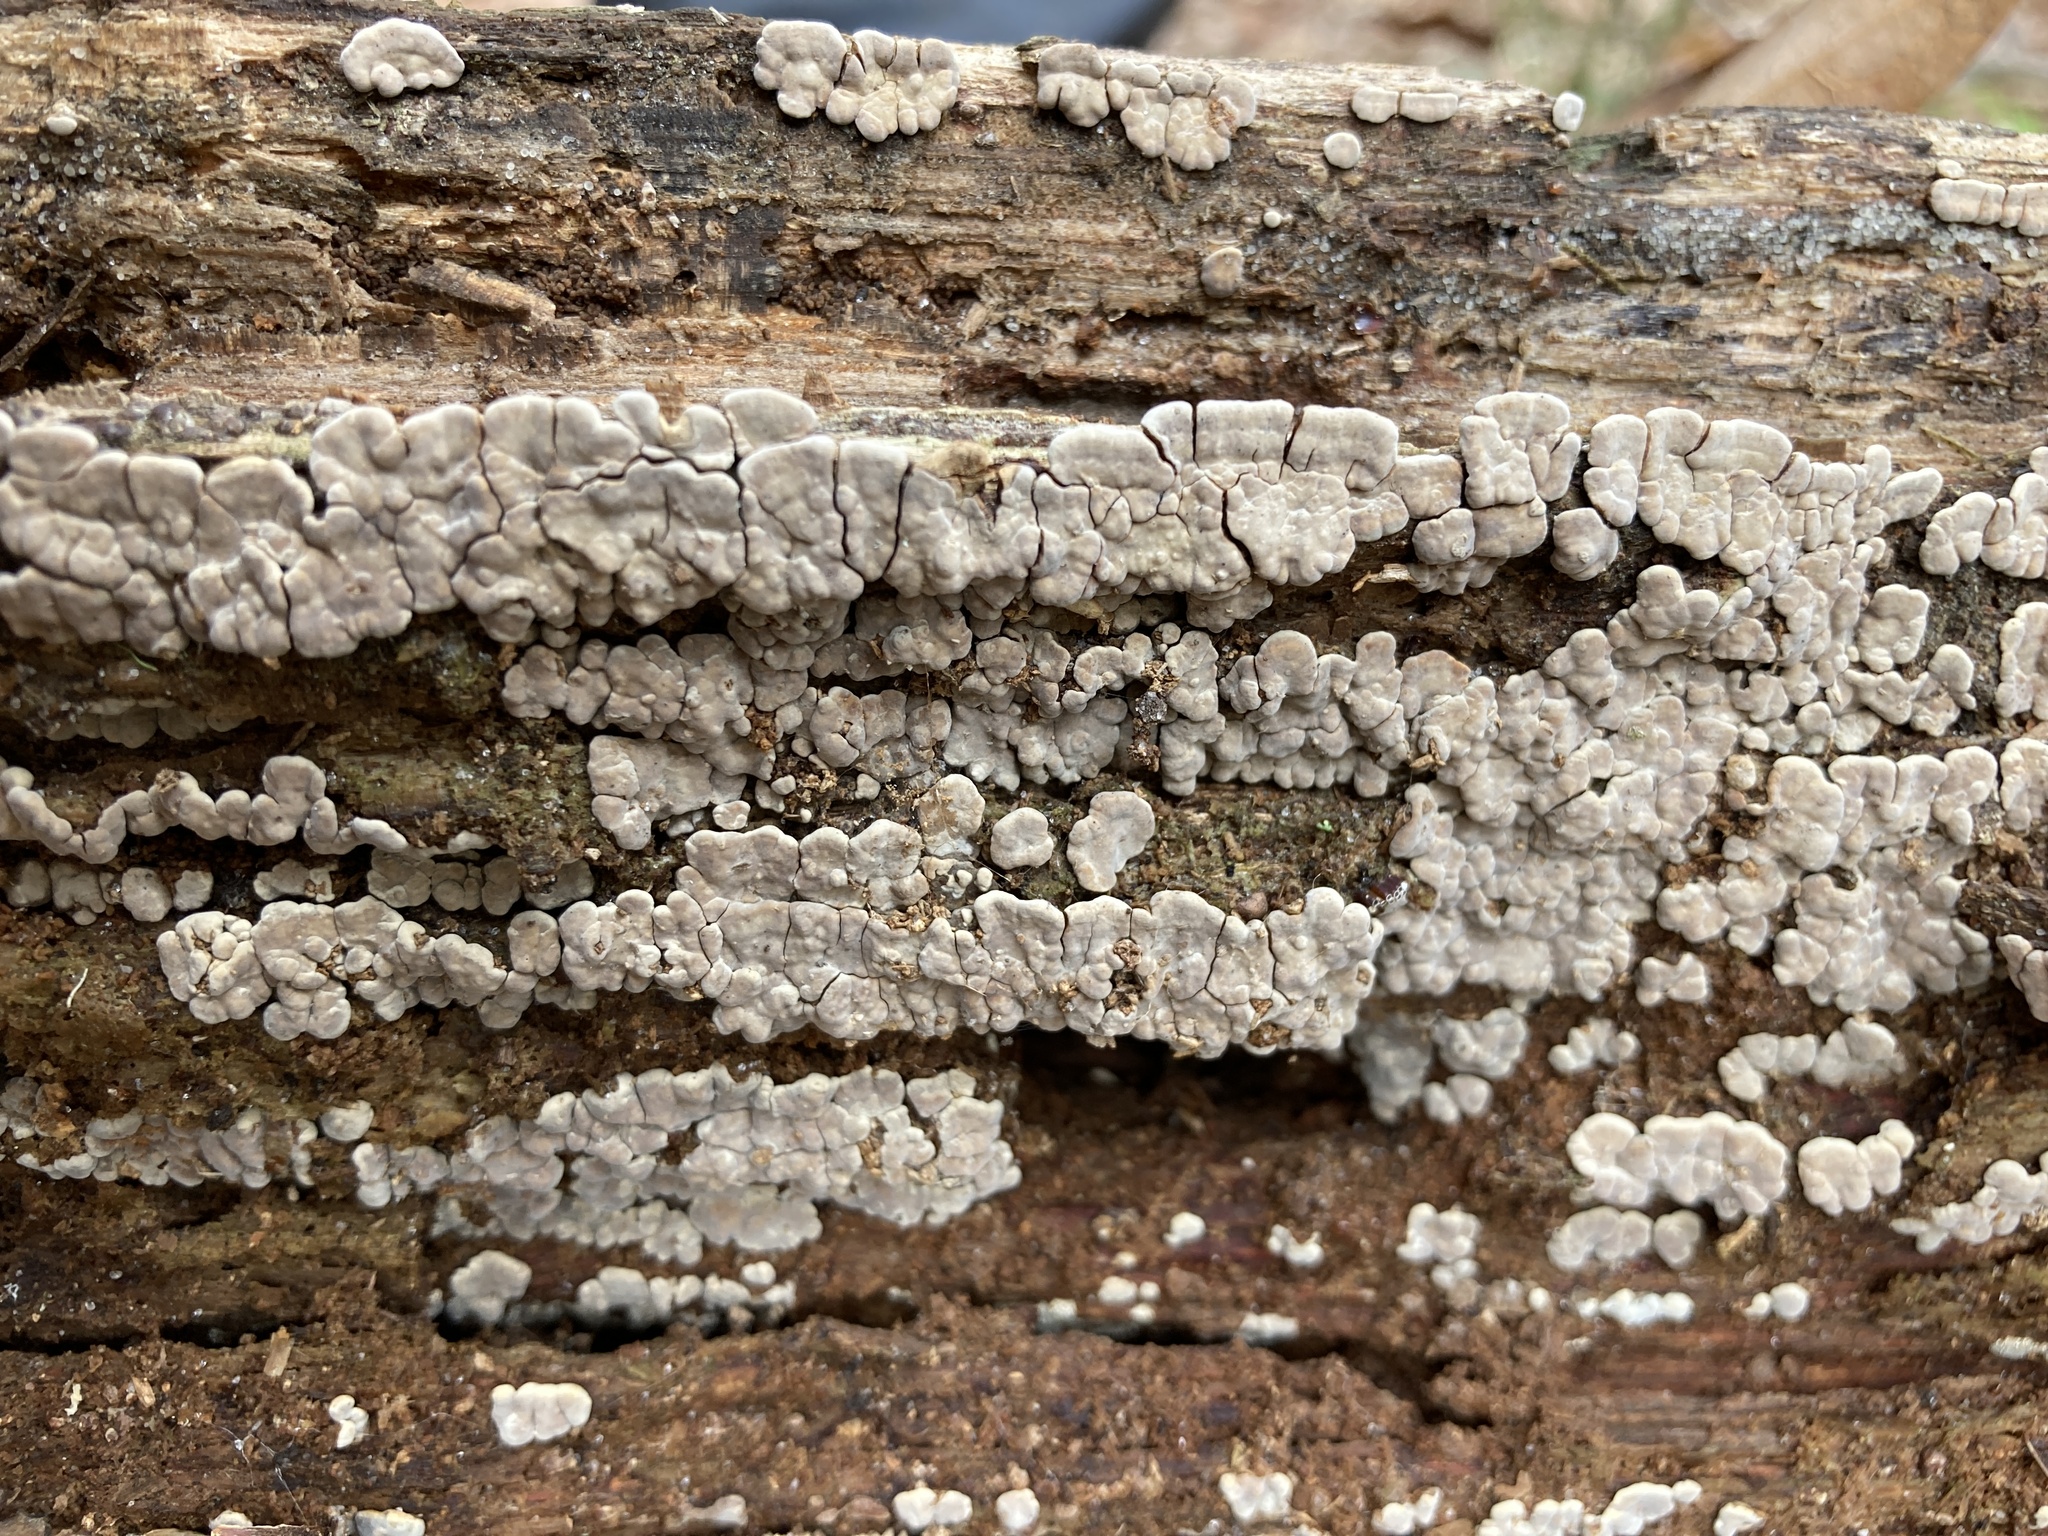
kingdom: Fungi
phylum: Basidiomycota
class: Agaricomycetes
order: Russulales
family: Stereaceae
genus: Xylobolus
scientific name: Xylobolus frustulatus
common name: Ceramic parchment
